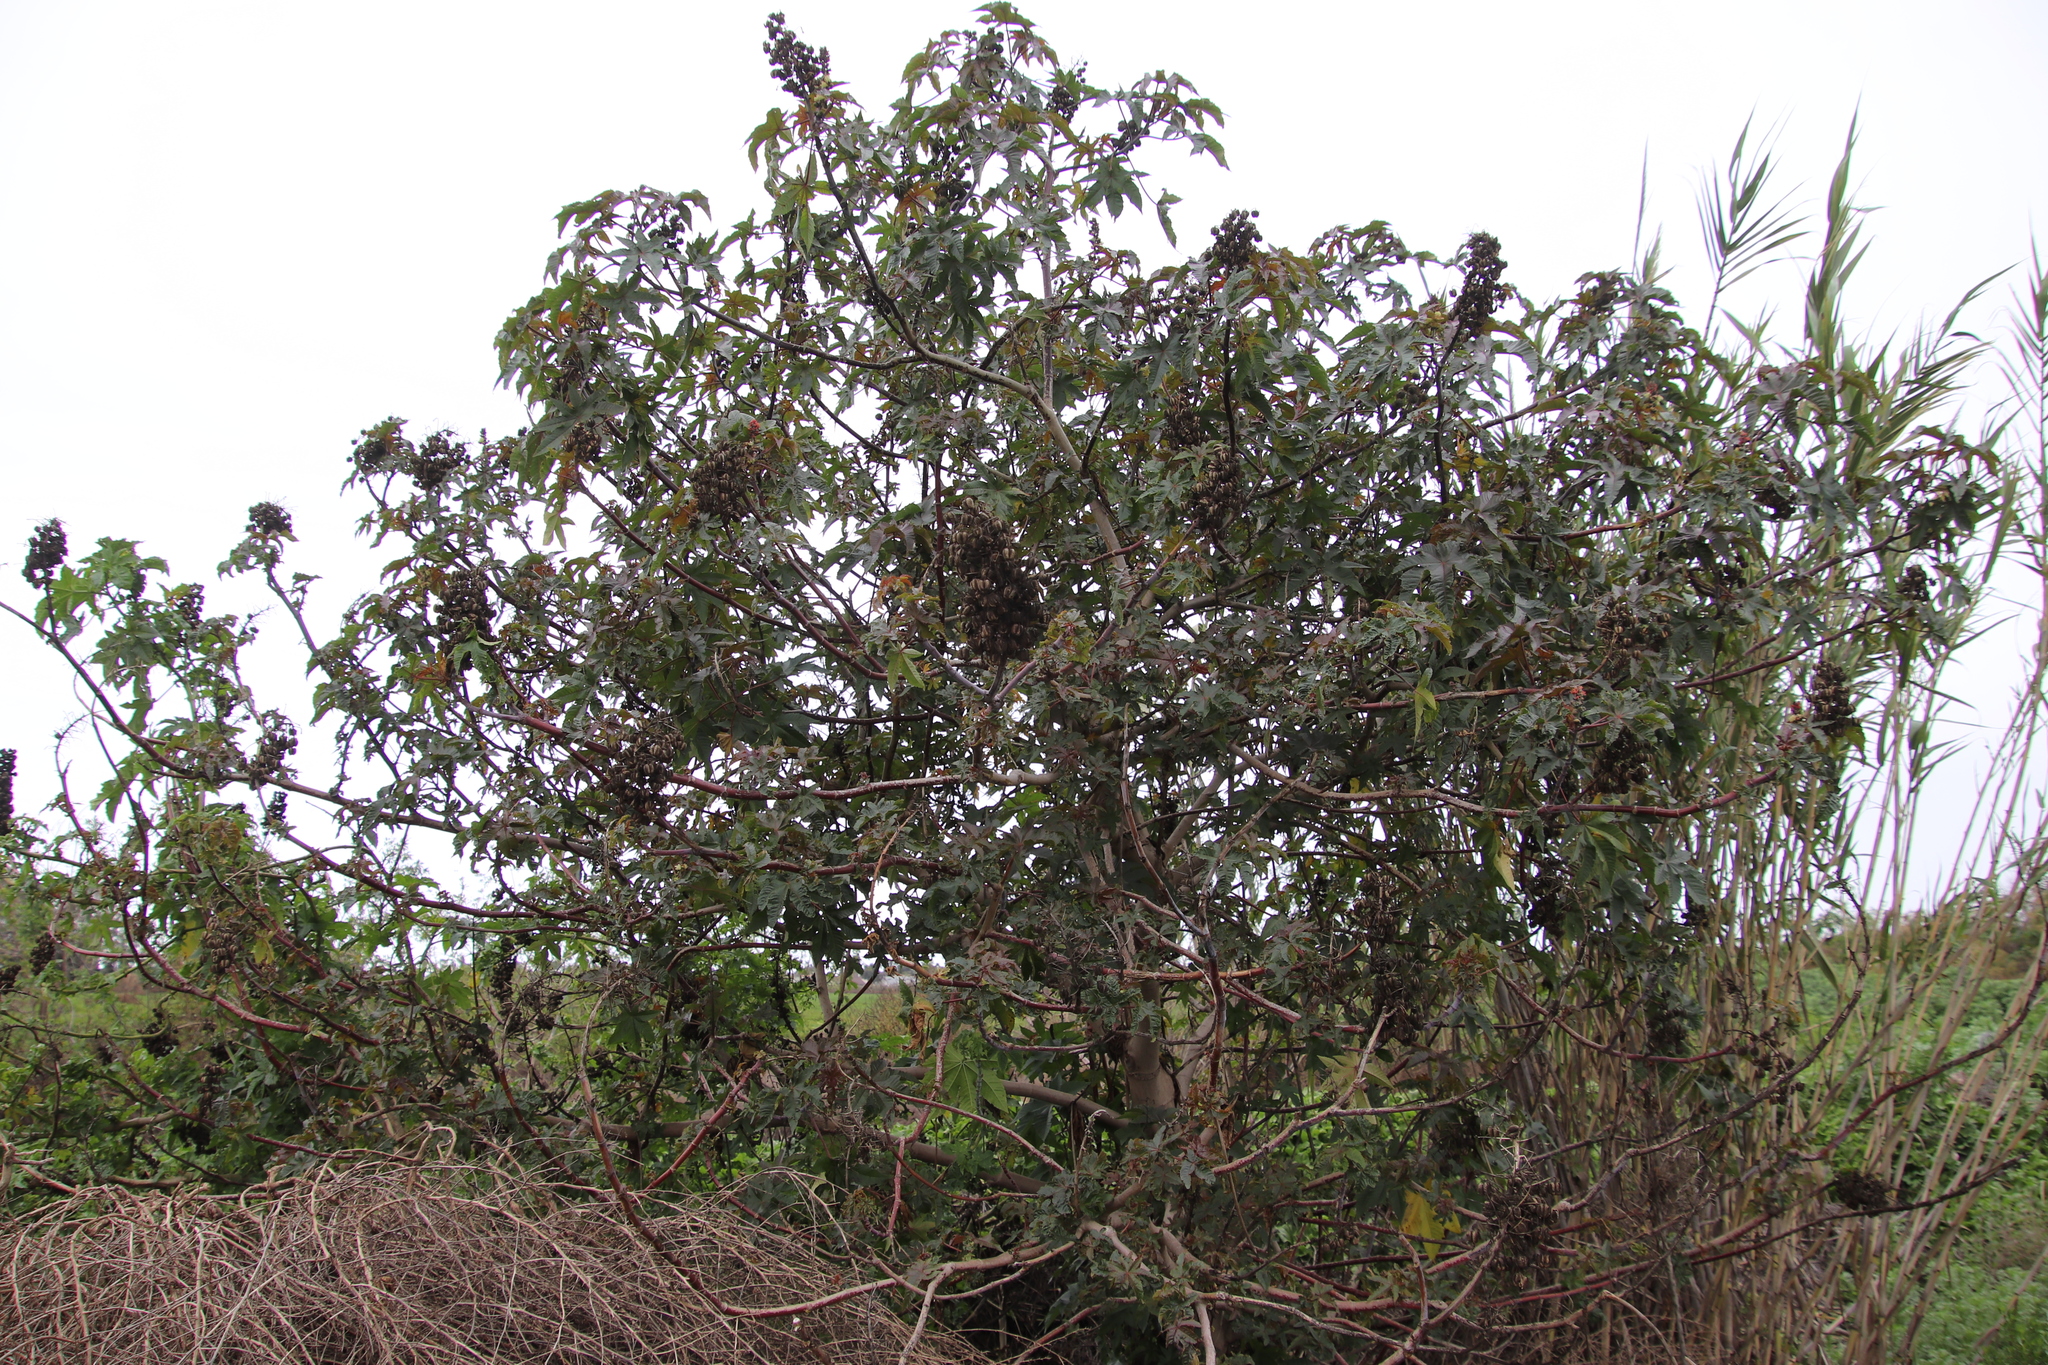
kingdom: Plantae
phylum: Tracheophyta
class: Magnoliopsida
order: Malpighiales
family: Euphorbiaceae
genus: Ricinus
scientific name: Ricinus communis
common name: Castor-oil-plant
